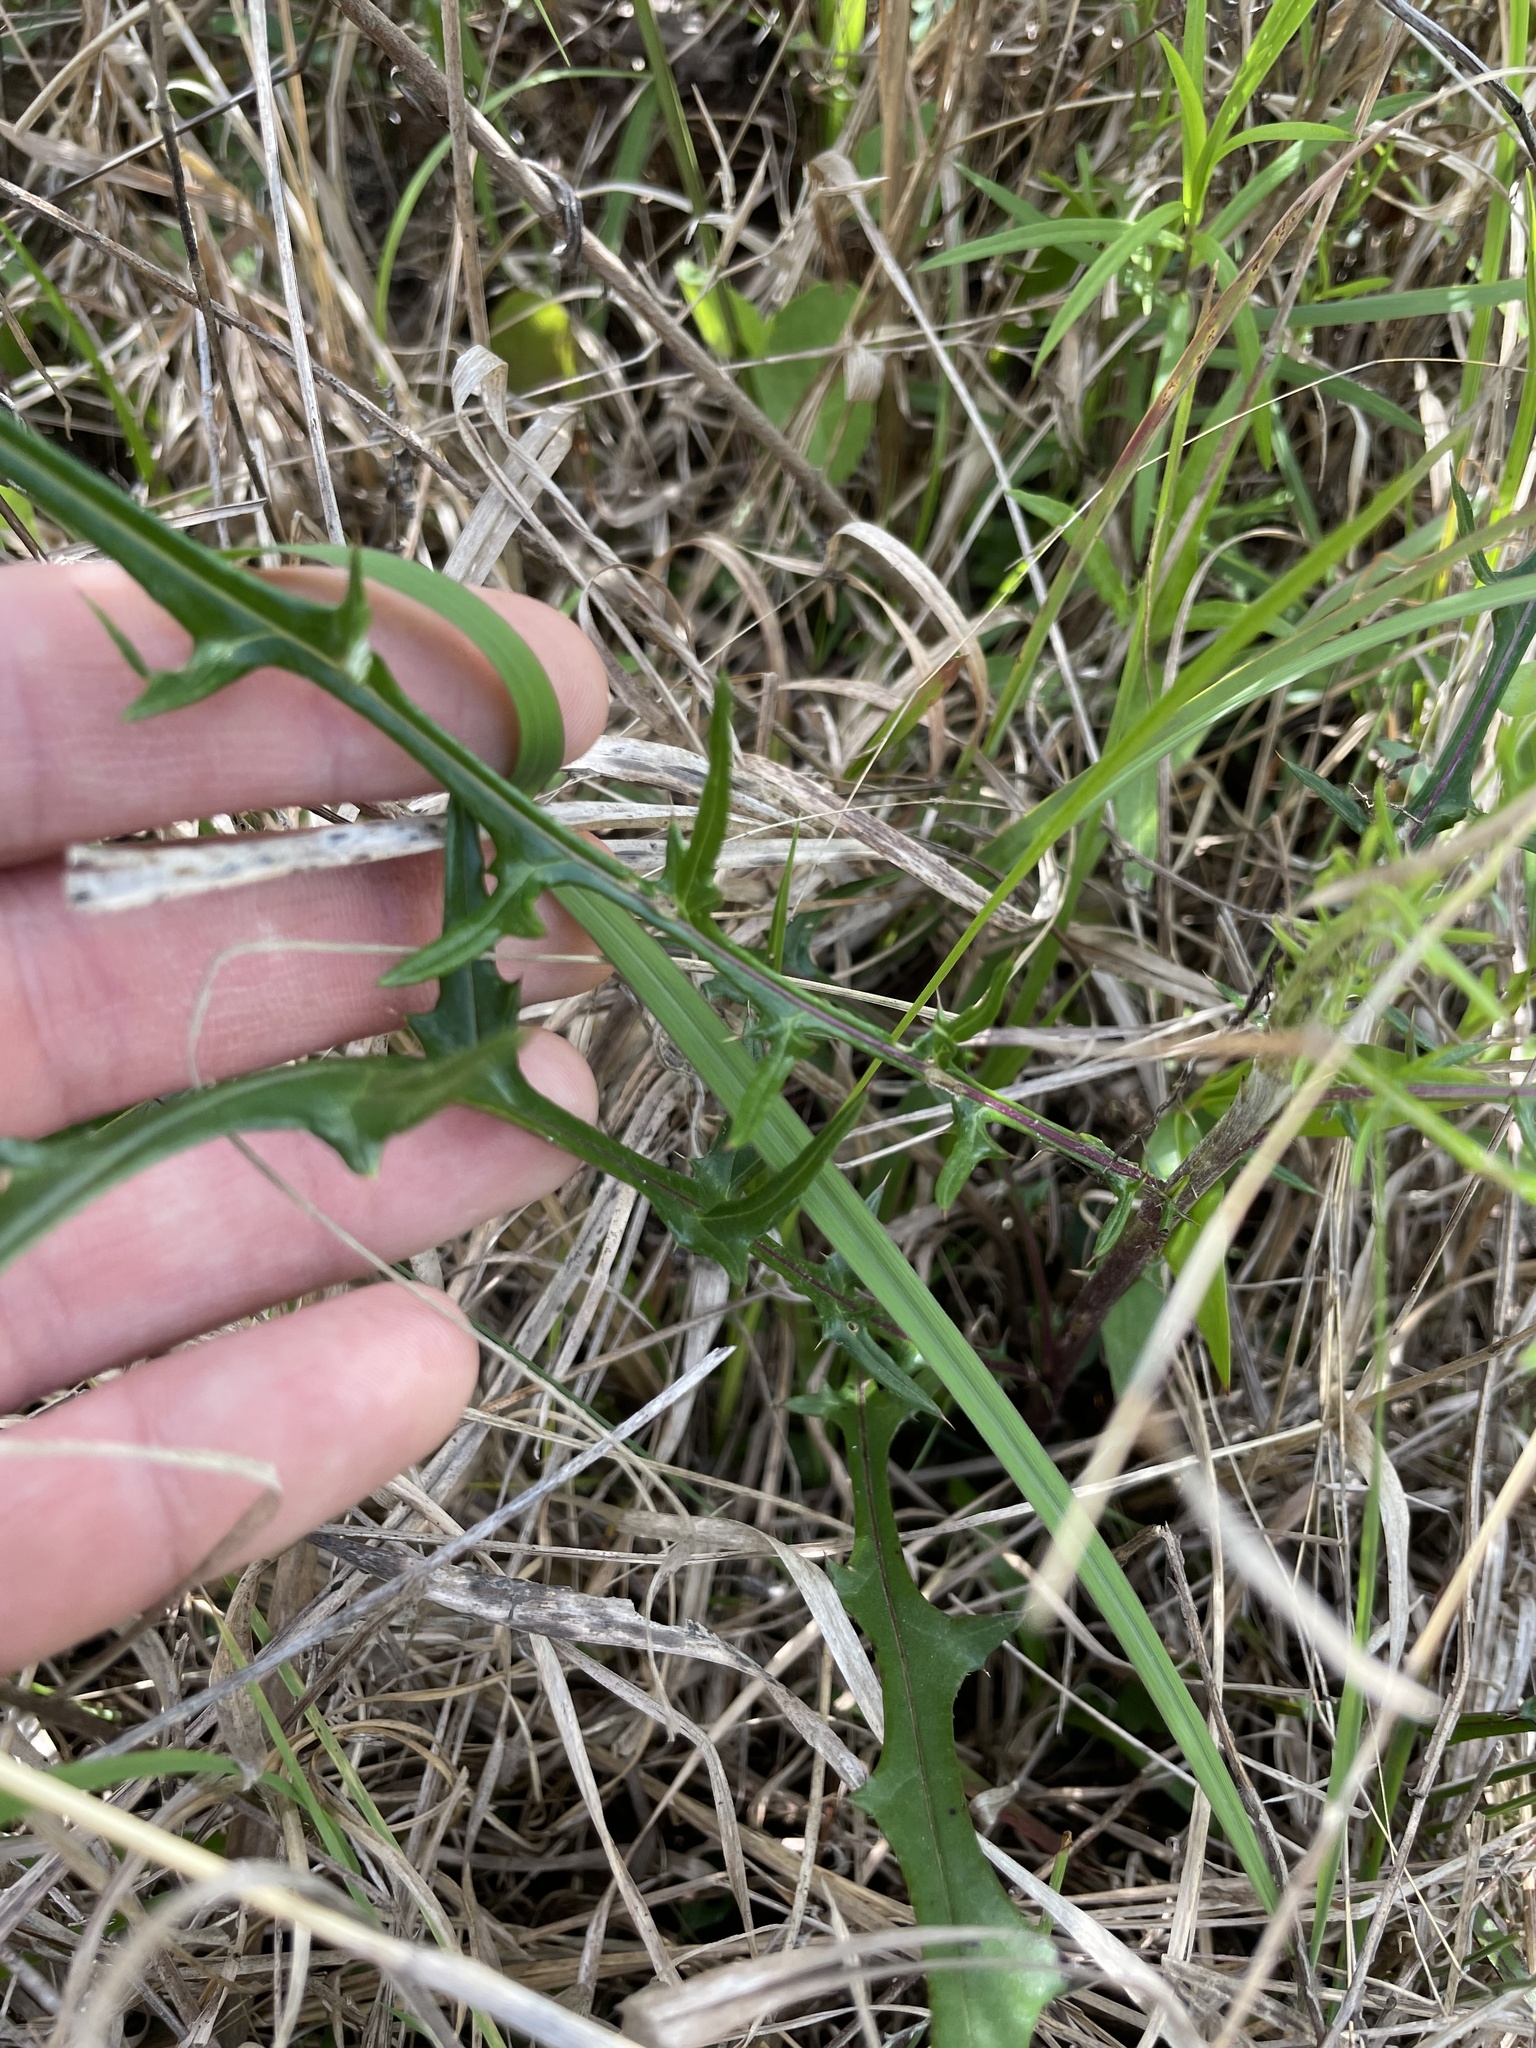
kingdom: Plantae
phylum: Tracheophyta
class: Magnoliopsida
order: Asterales
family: Asteraceae
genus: Cirsium
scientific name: Cirsium virginianum
